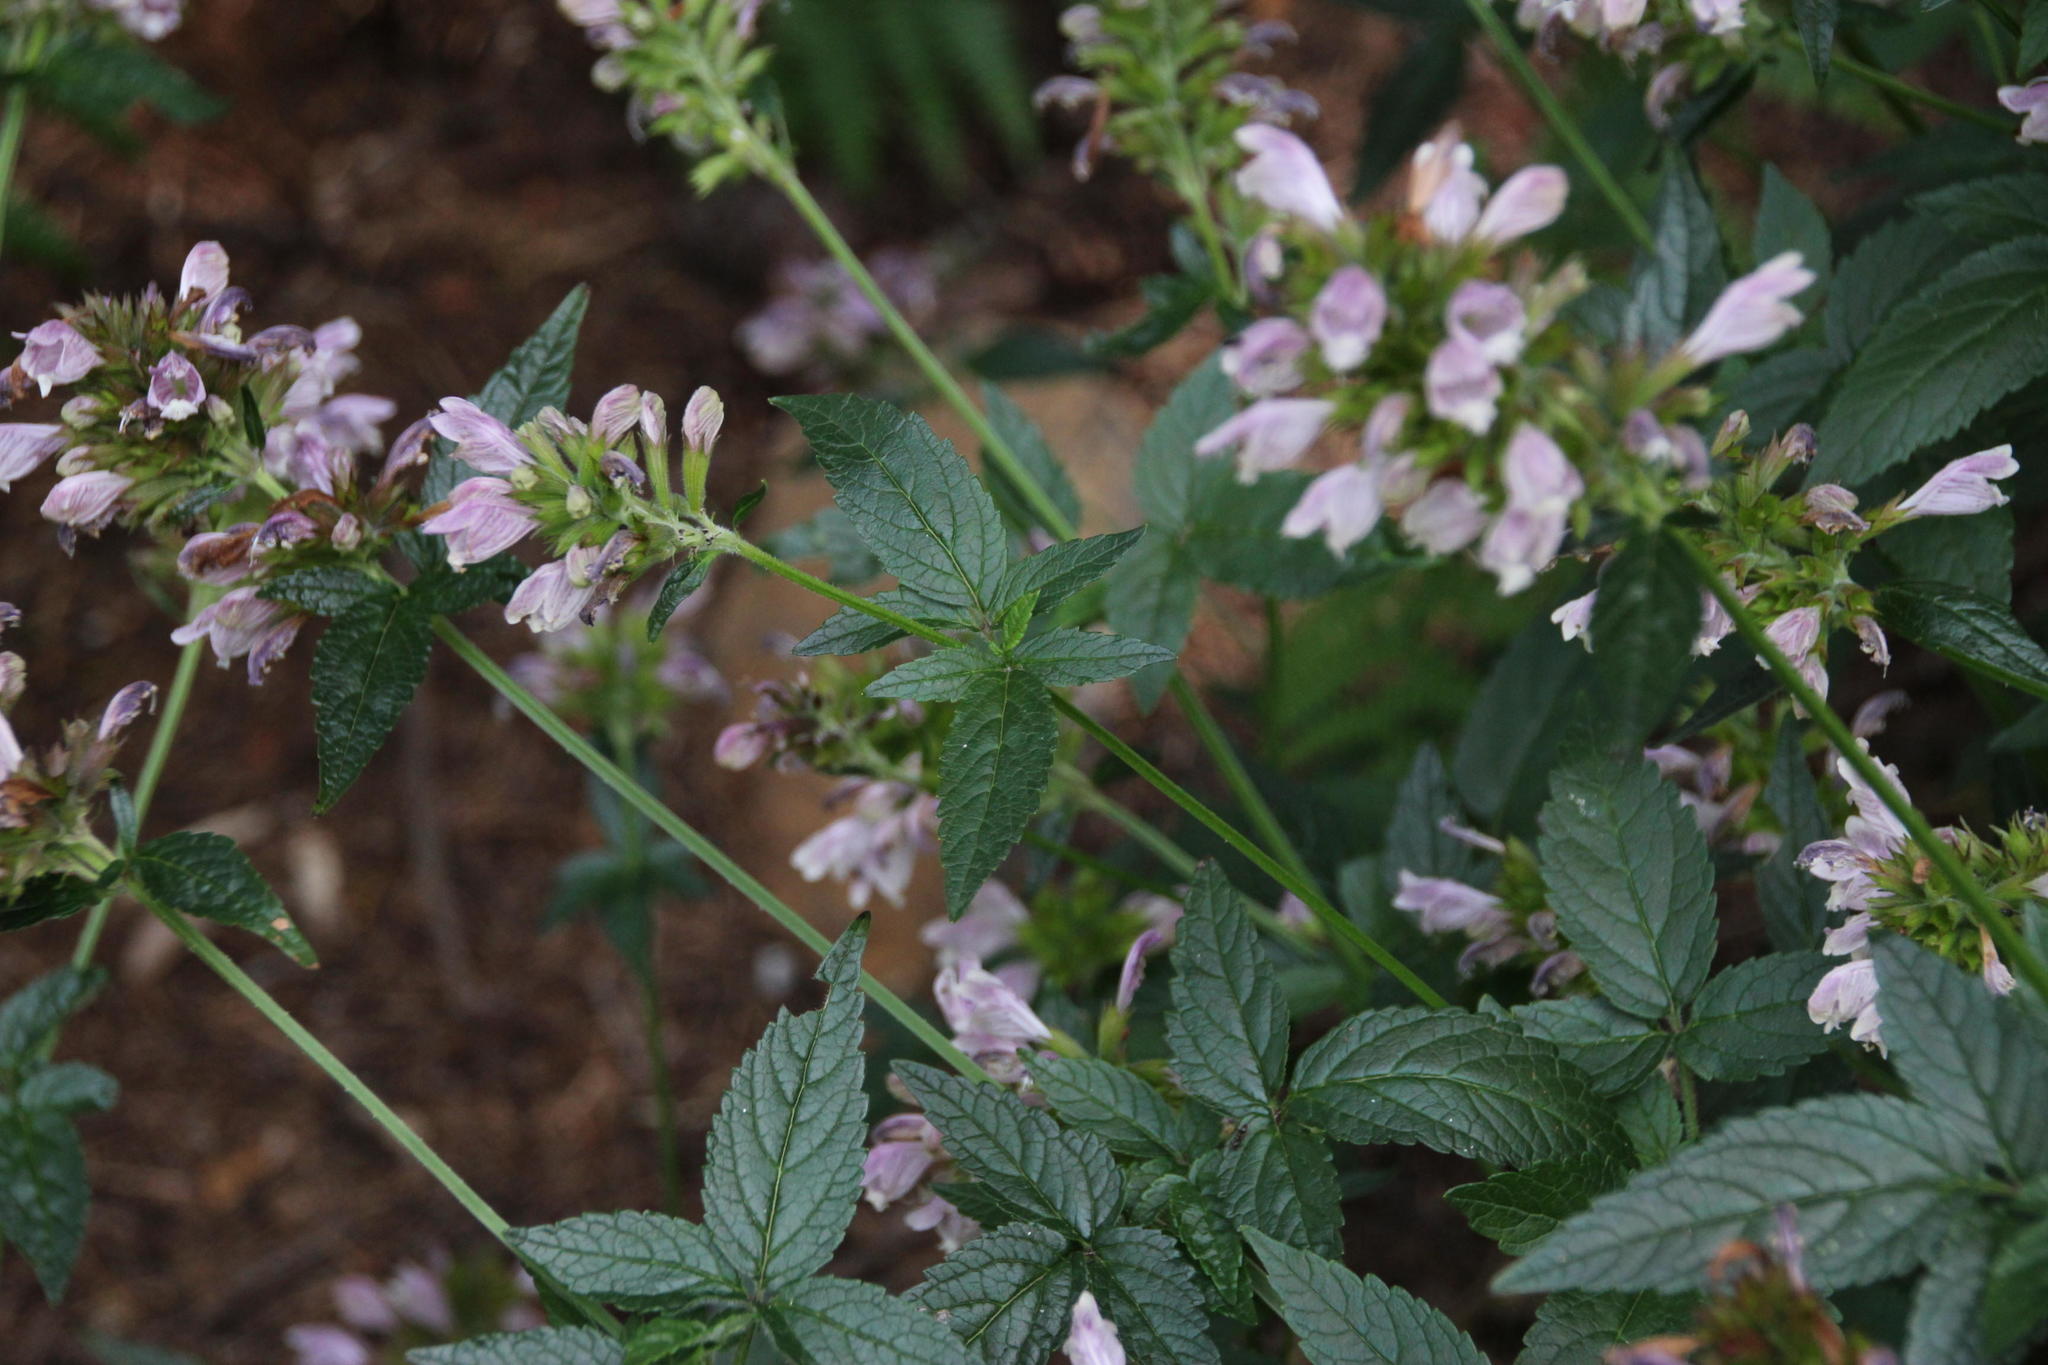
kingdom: Plantae
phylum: Tracheophyta
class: Magnoliopsida
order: Lamiales
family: Lamiaceae
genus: Cedronella
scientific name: Cedronella canariensis
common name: Canary islands balm
